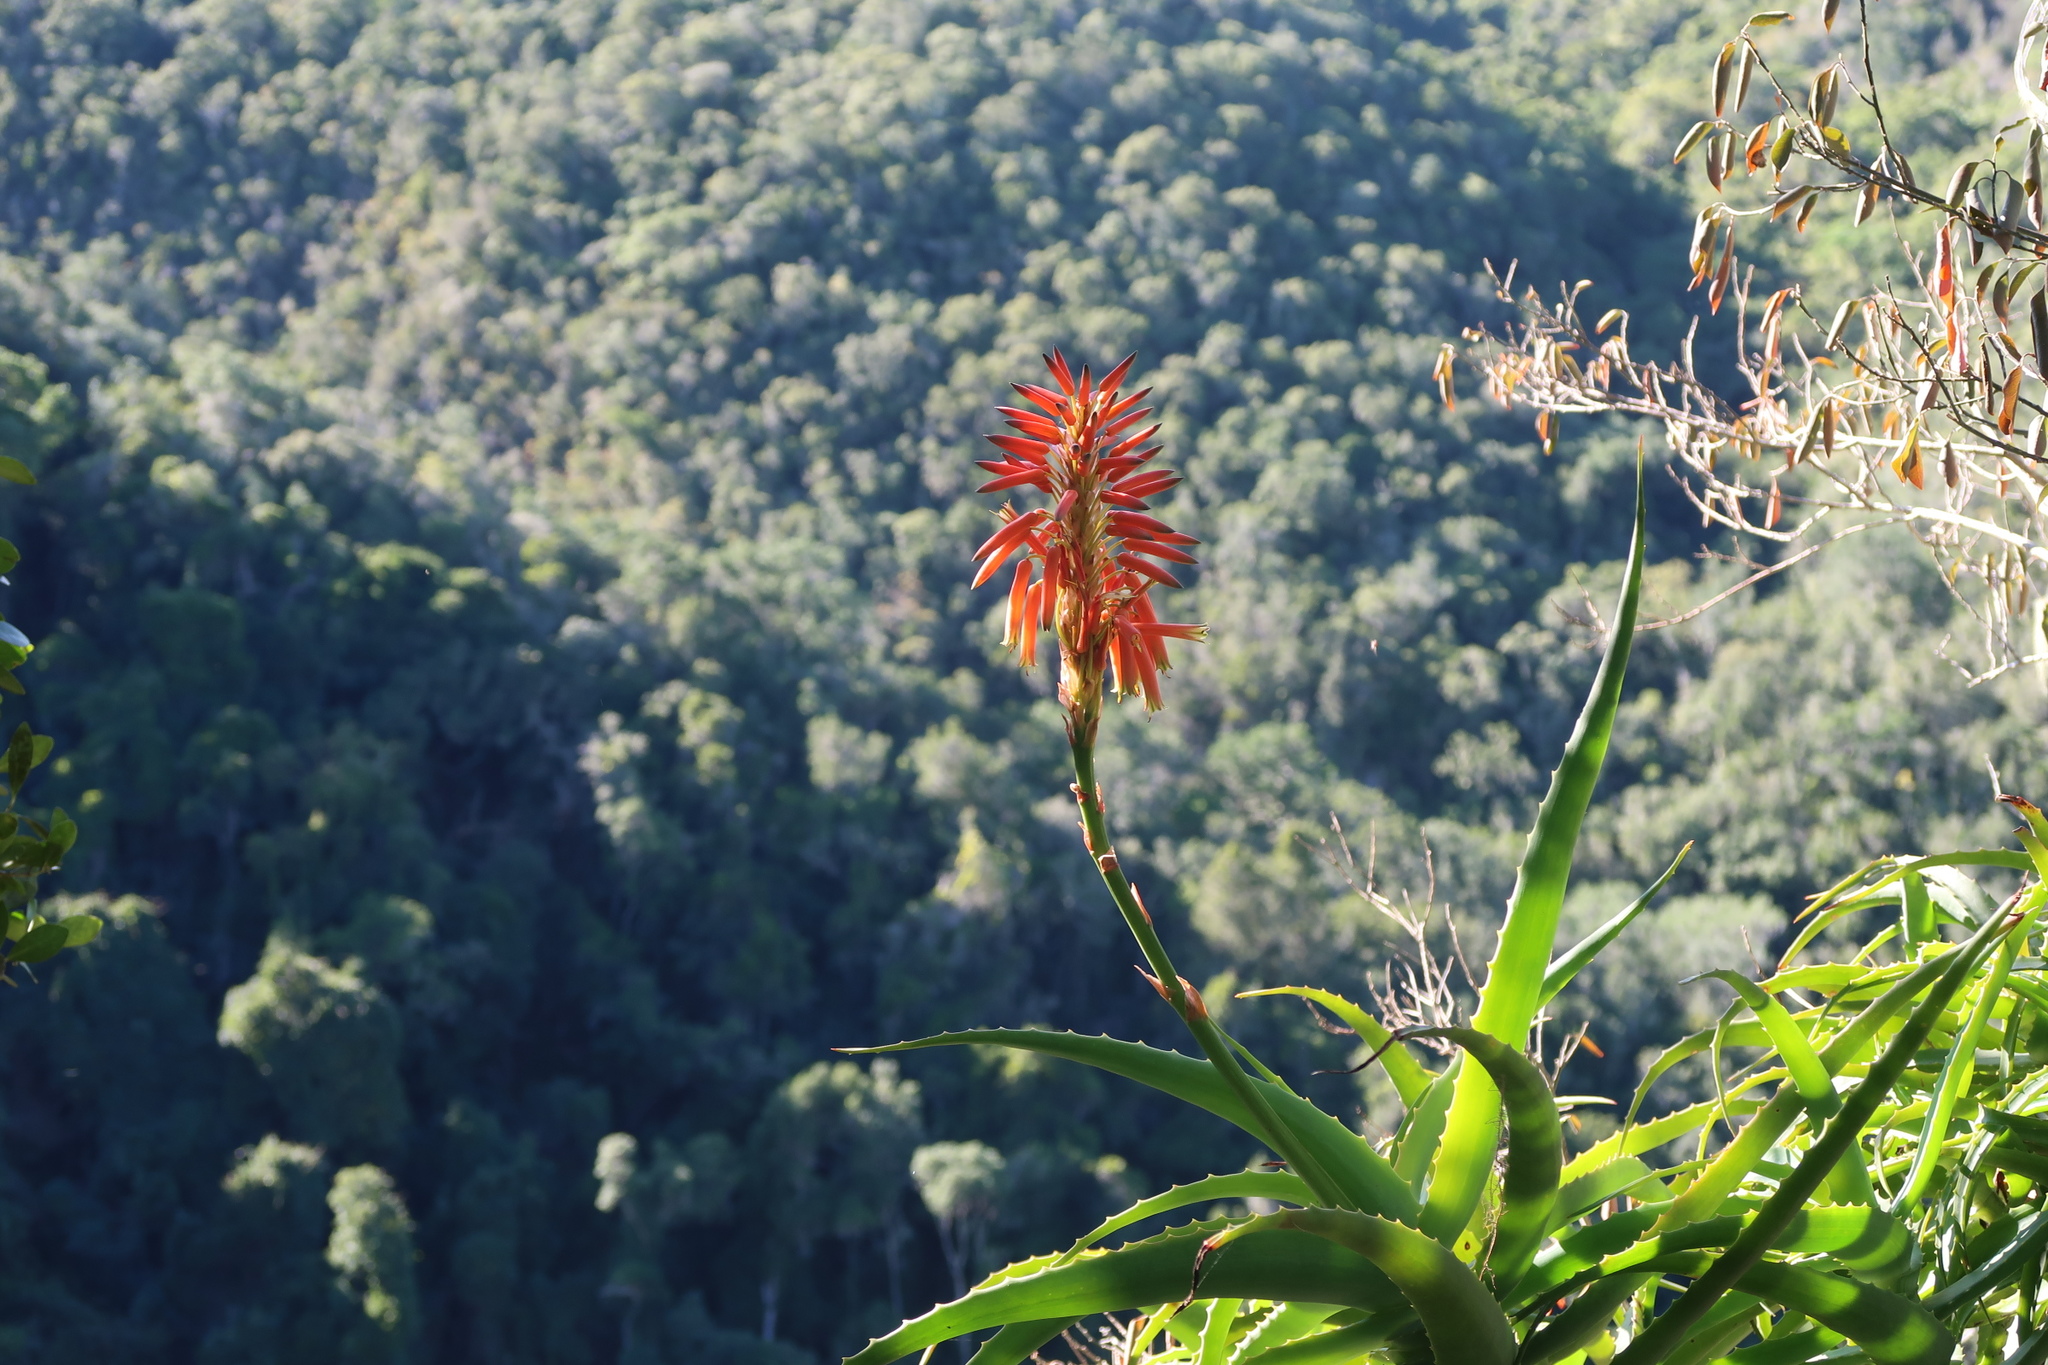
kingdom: Plantae
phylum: Tracheophyta
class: Liliopsida
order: Asparagales
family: Asphodelaceae
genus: Aloe
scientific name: Aloe arborescens
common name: Candelabra aloe
